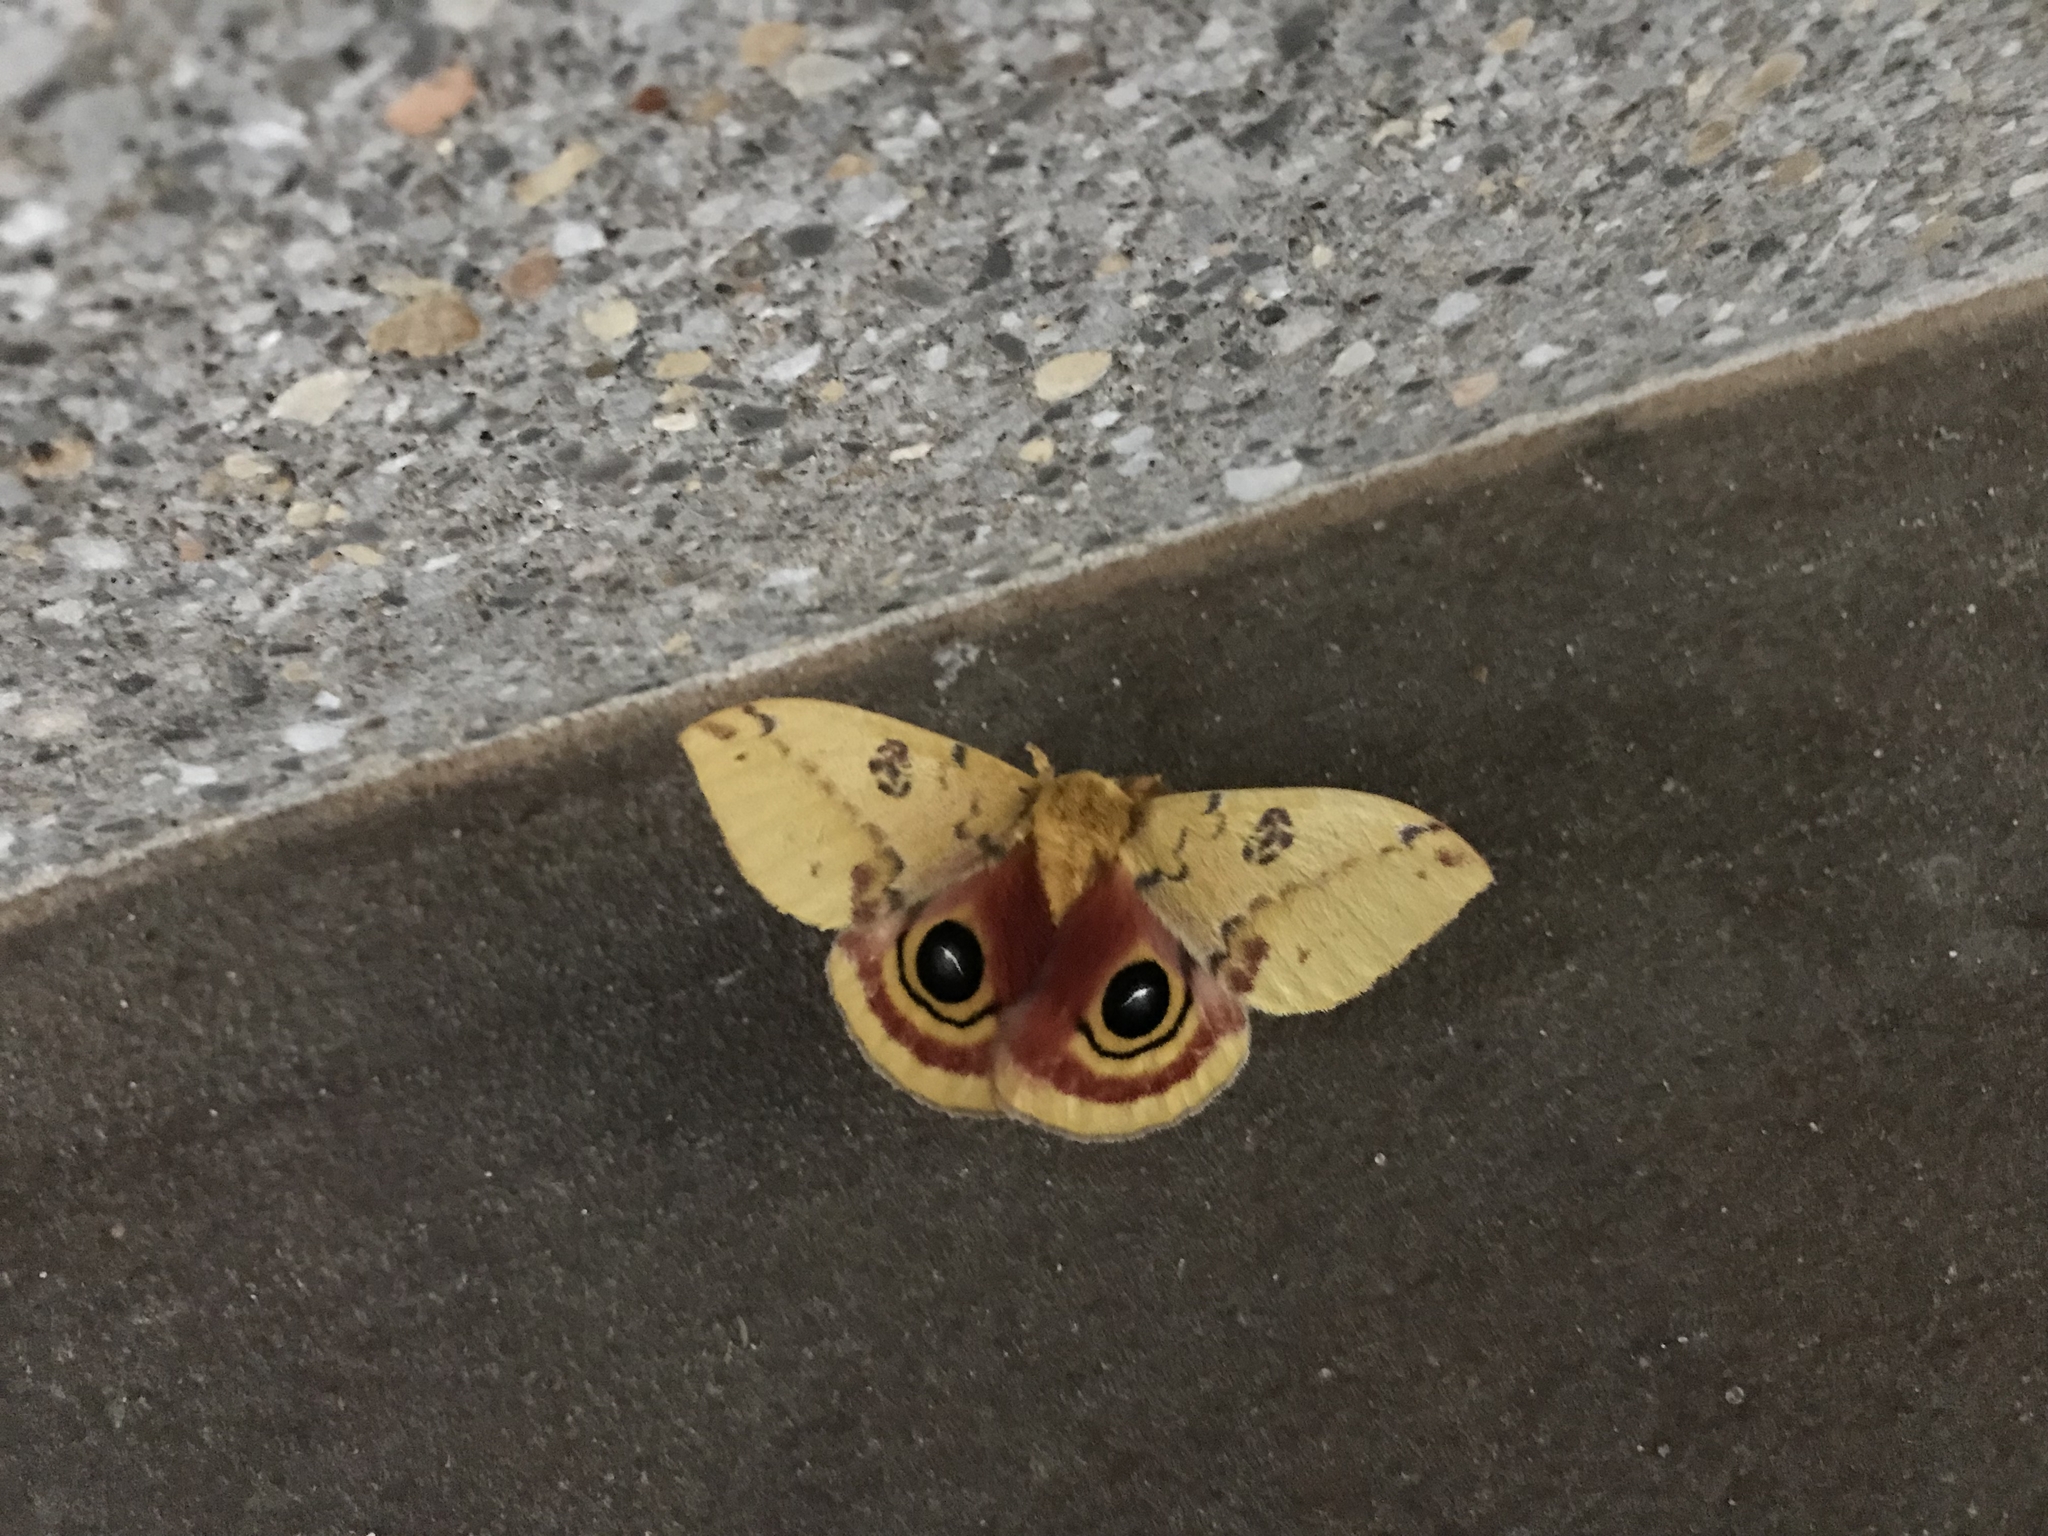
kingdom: Animalia
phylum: Arthropoda
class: Insecta
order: Lepidoptera
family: Saturniidae
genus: Automeris
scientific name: Automeris io
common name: Io moth
